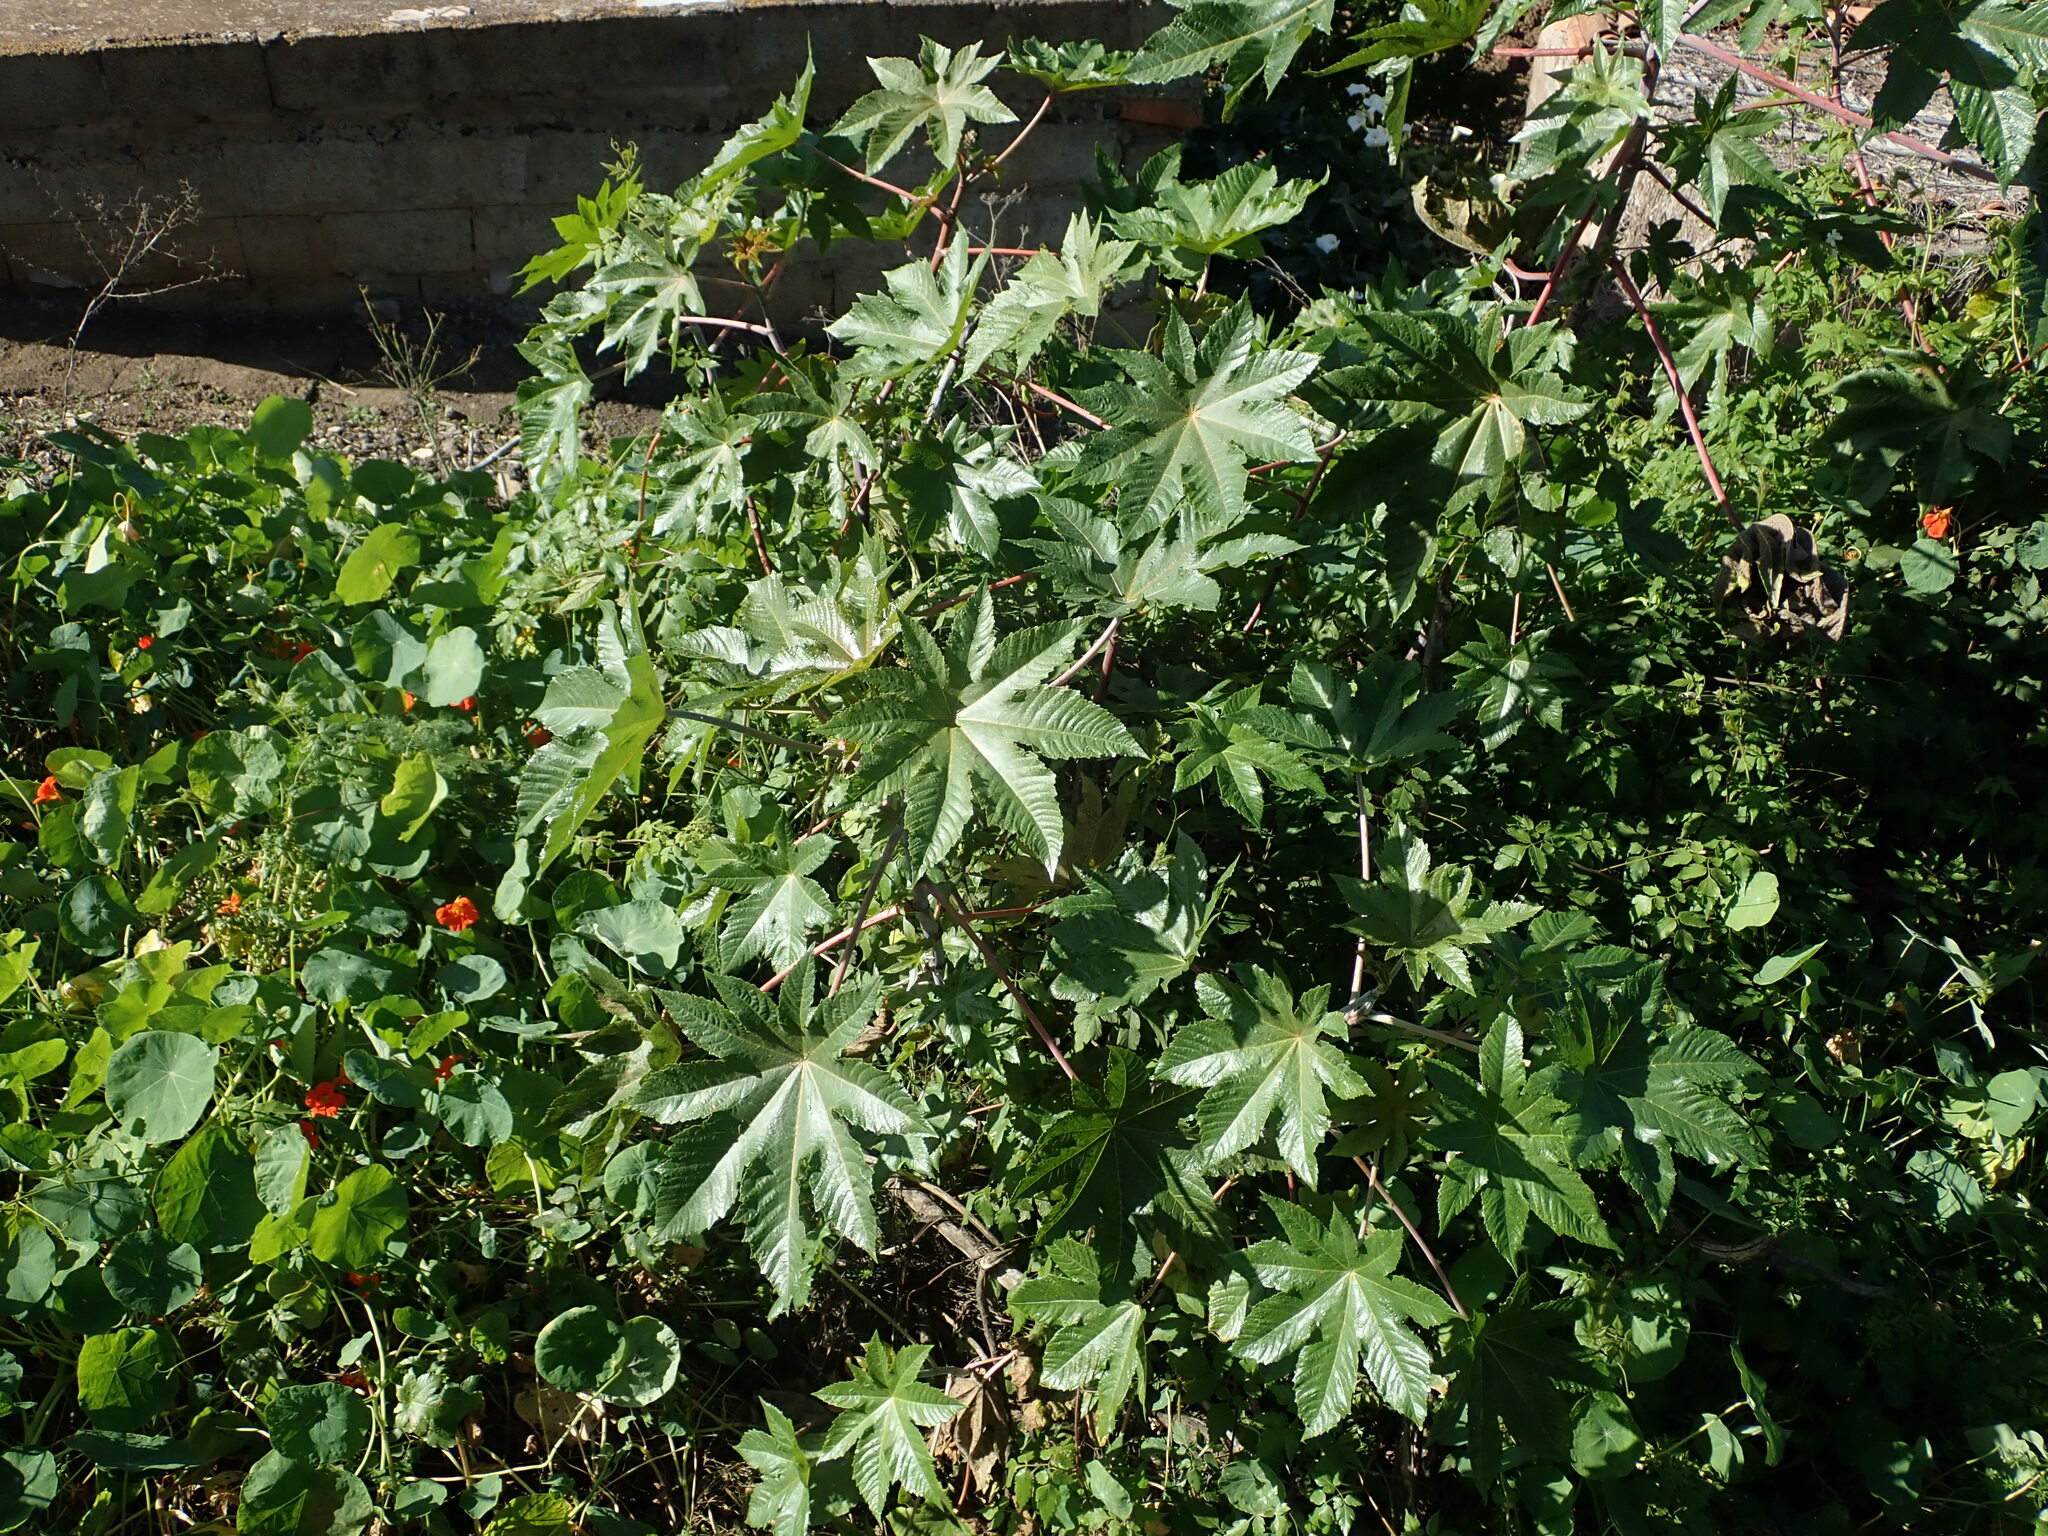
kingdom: Plantae
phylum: Tracheophyta
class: Magnoliopsida
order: Malpighiales
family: Euphorbiaceae
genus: Ricinus
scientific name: Ricinus communis
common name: Castor-oil-plant
